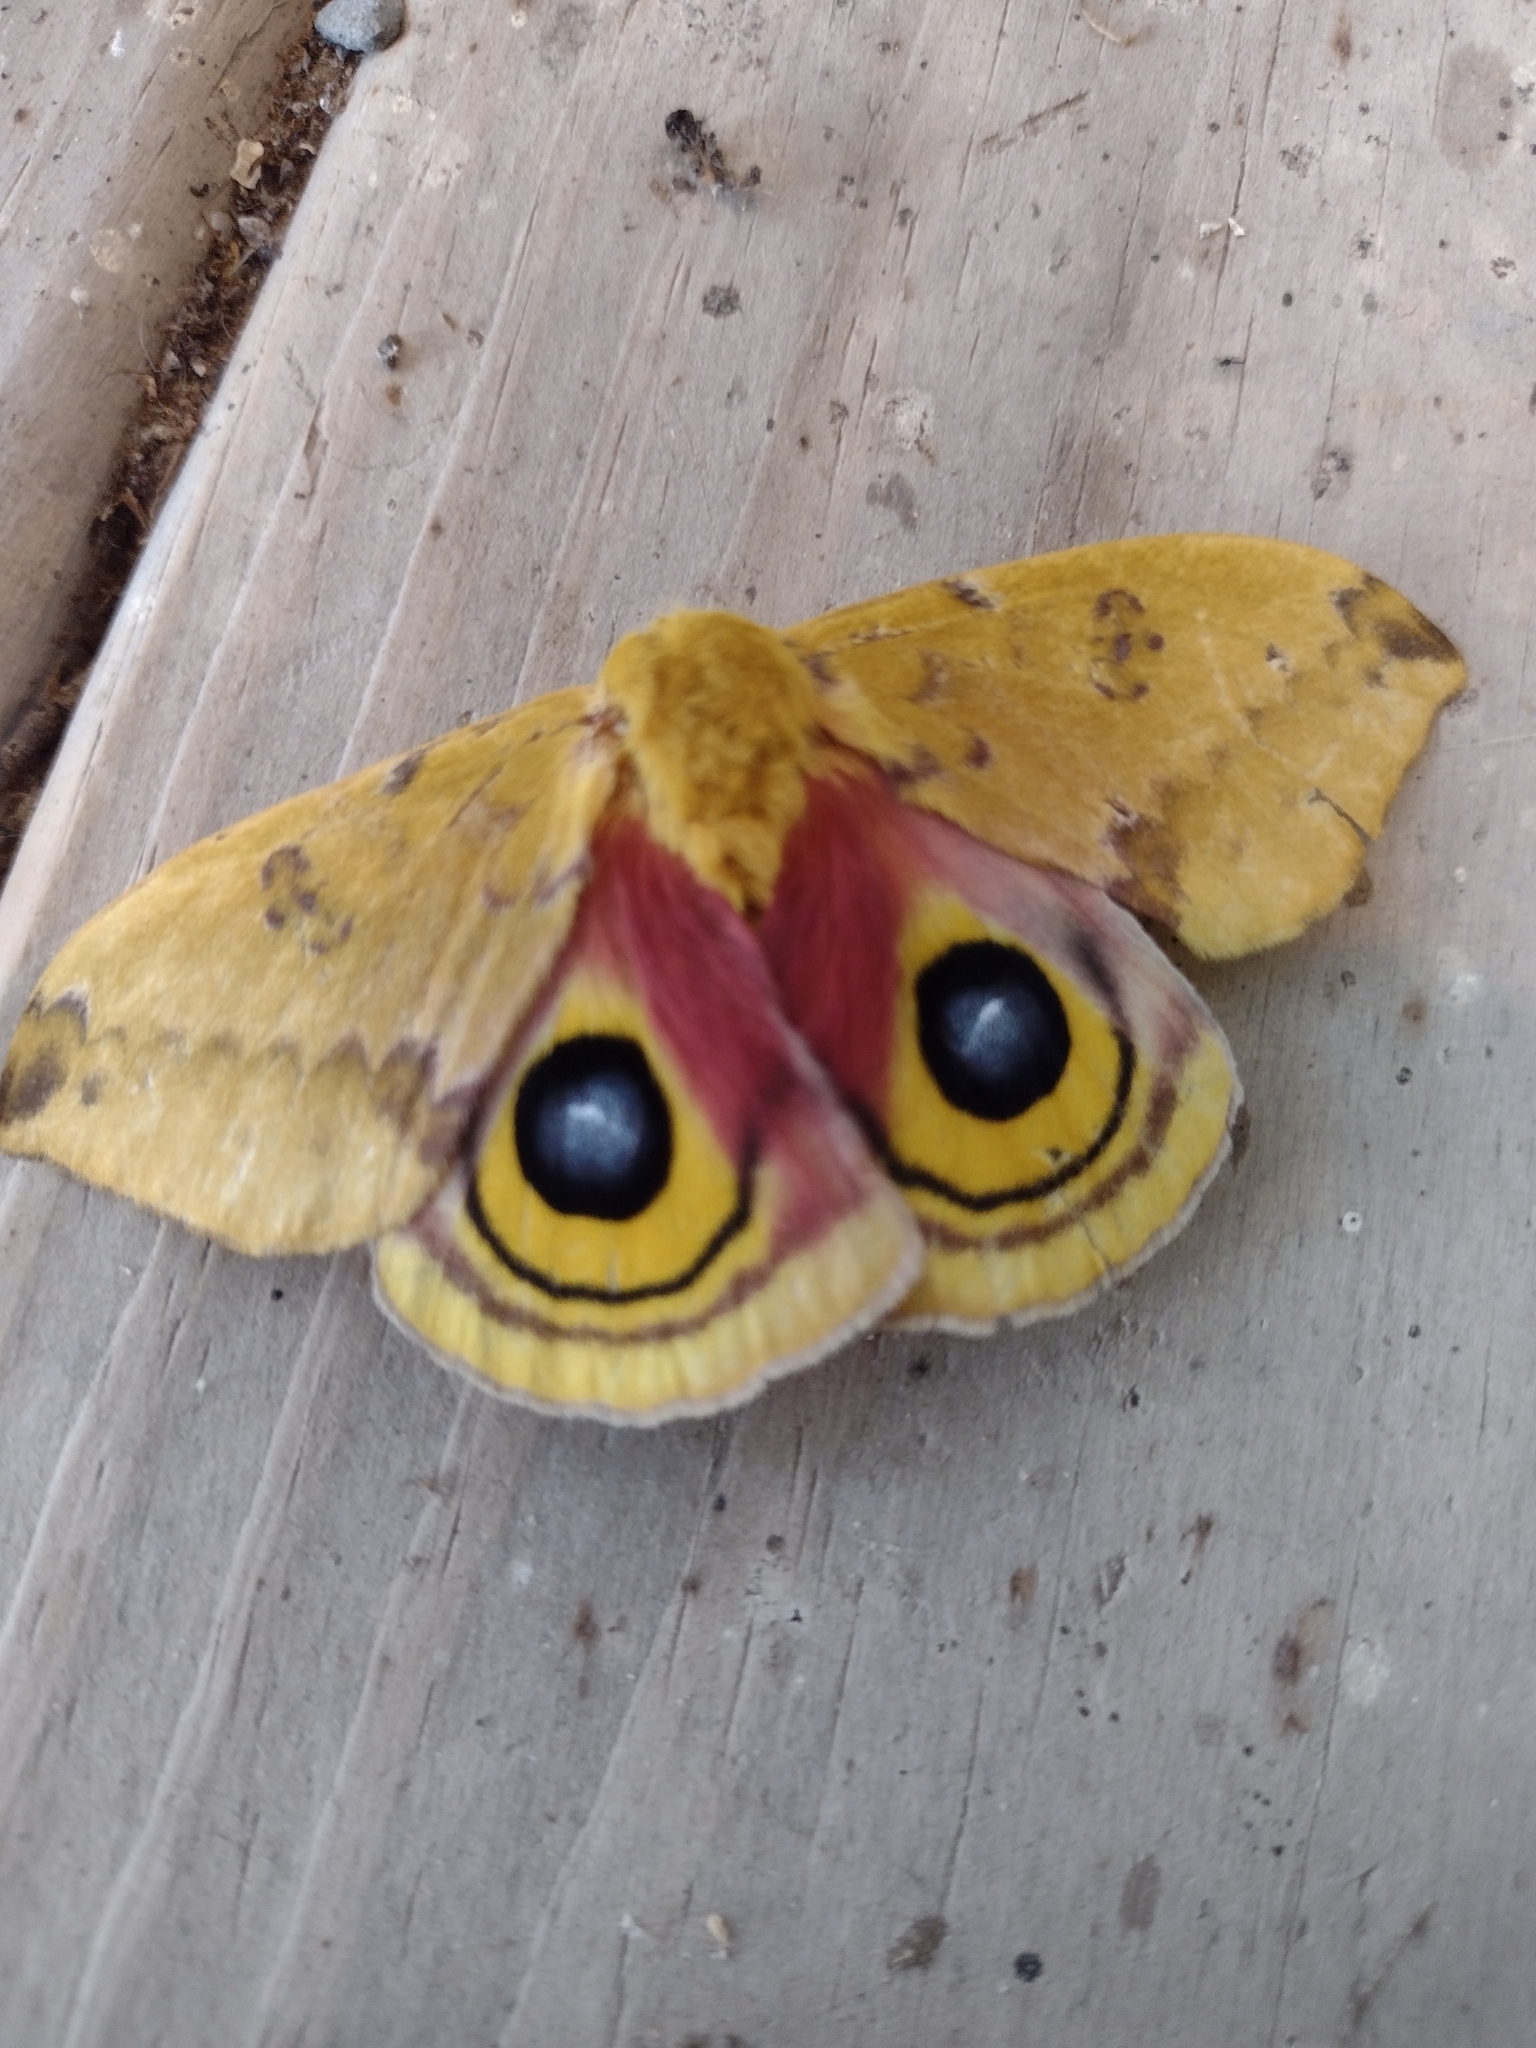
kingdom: Animalia
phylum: Arthropoda
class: Insecta
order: Lepidoptera
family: Saturniidae
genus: Automeris
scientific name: Automeris io
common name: Io moth
